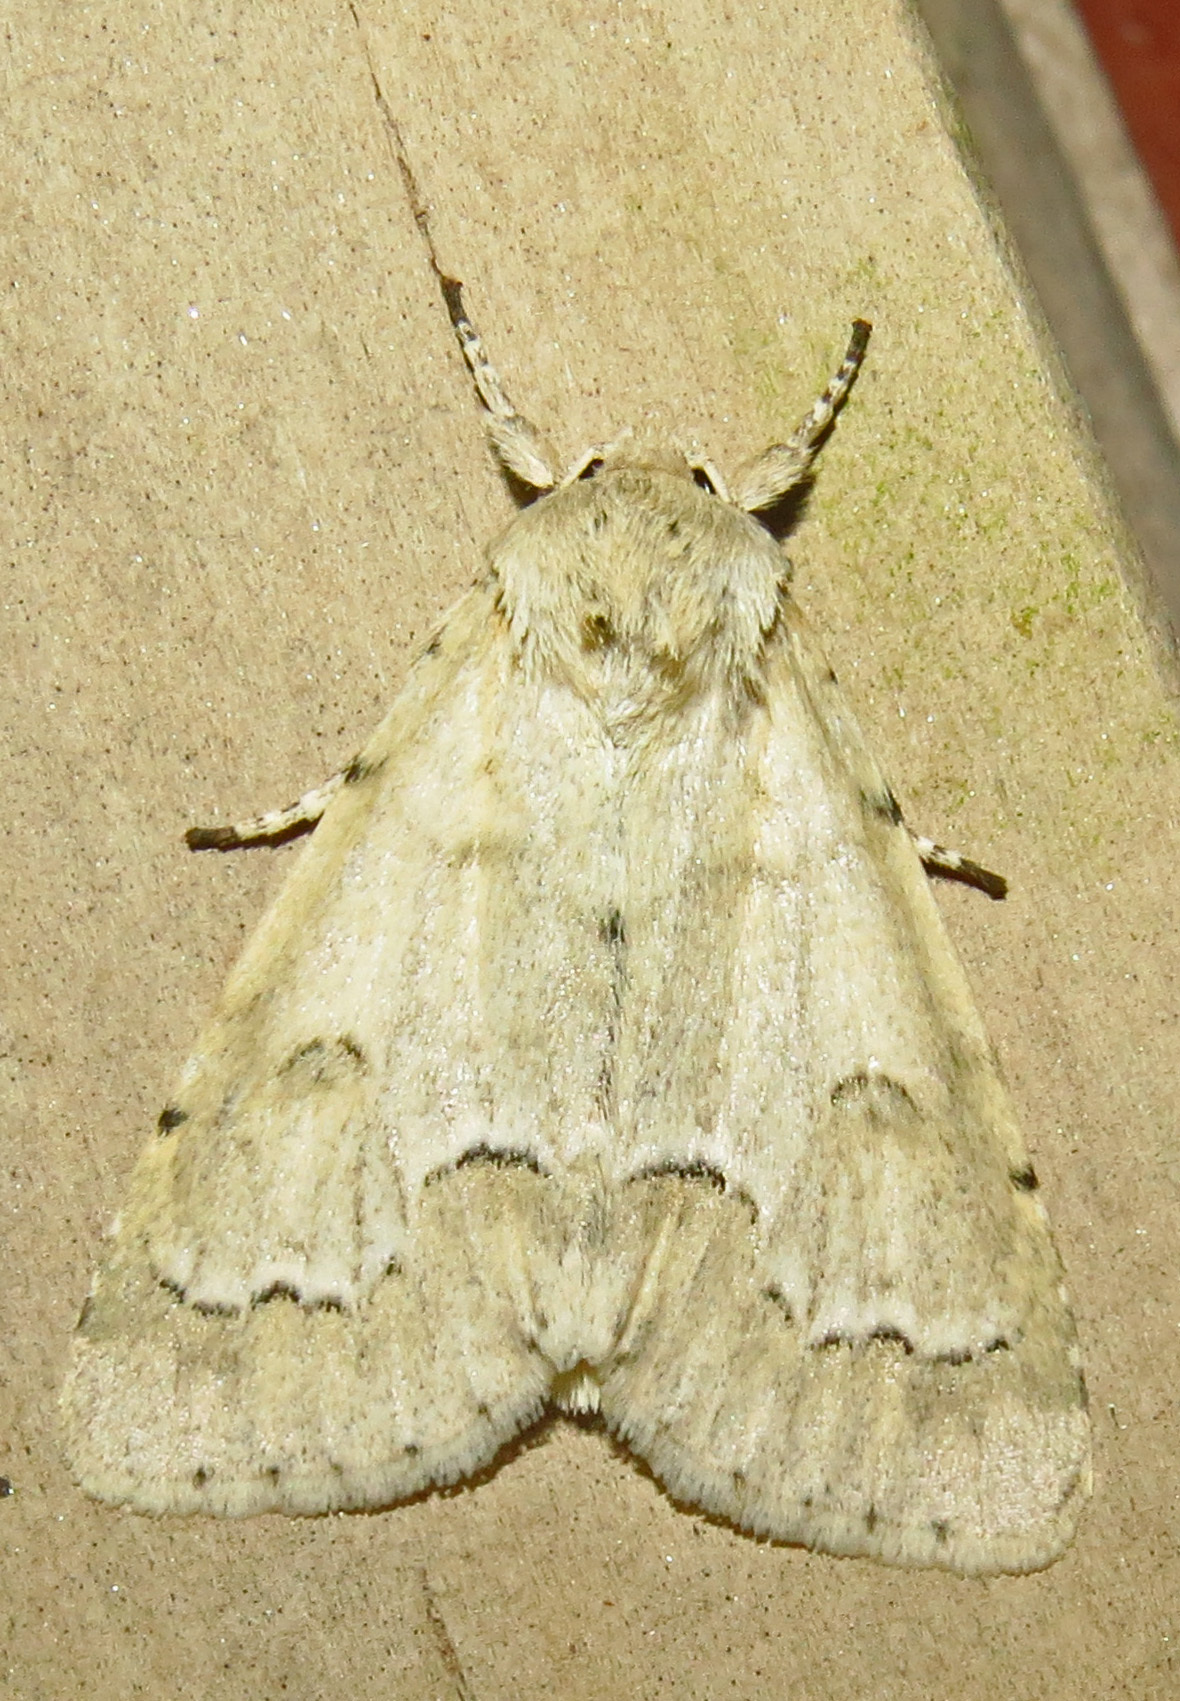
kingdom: Animalia
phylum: Arthropoda
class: Insecta
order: Lepidoptera
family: Noctuidae
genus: Acronicta
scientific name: Acronicta innotata
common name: Unmarked dagger
